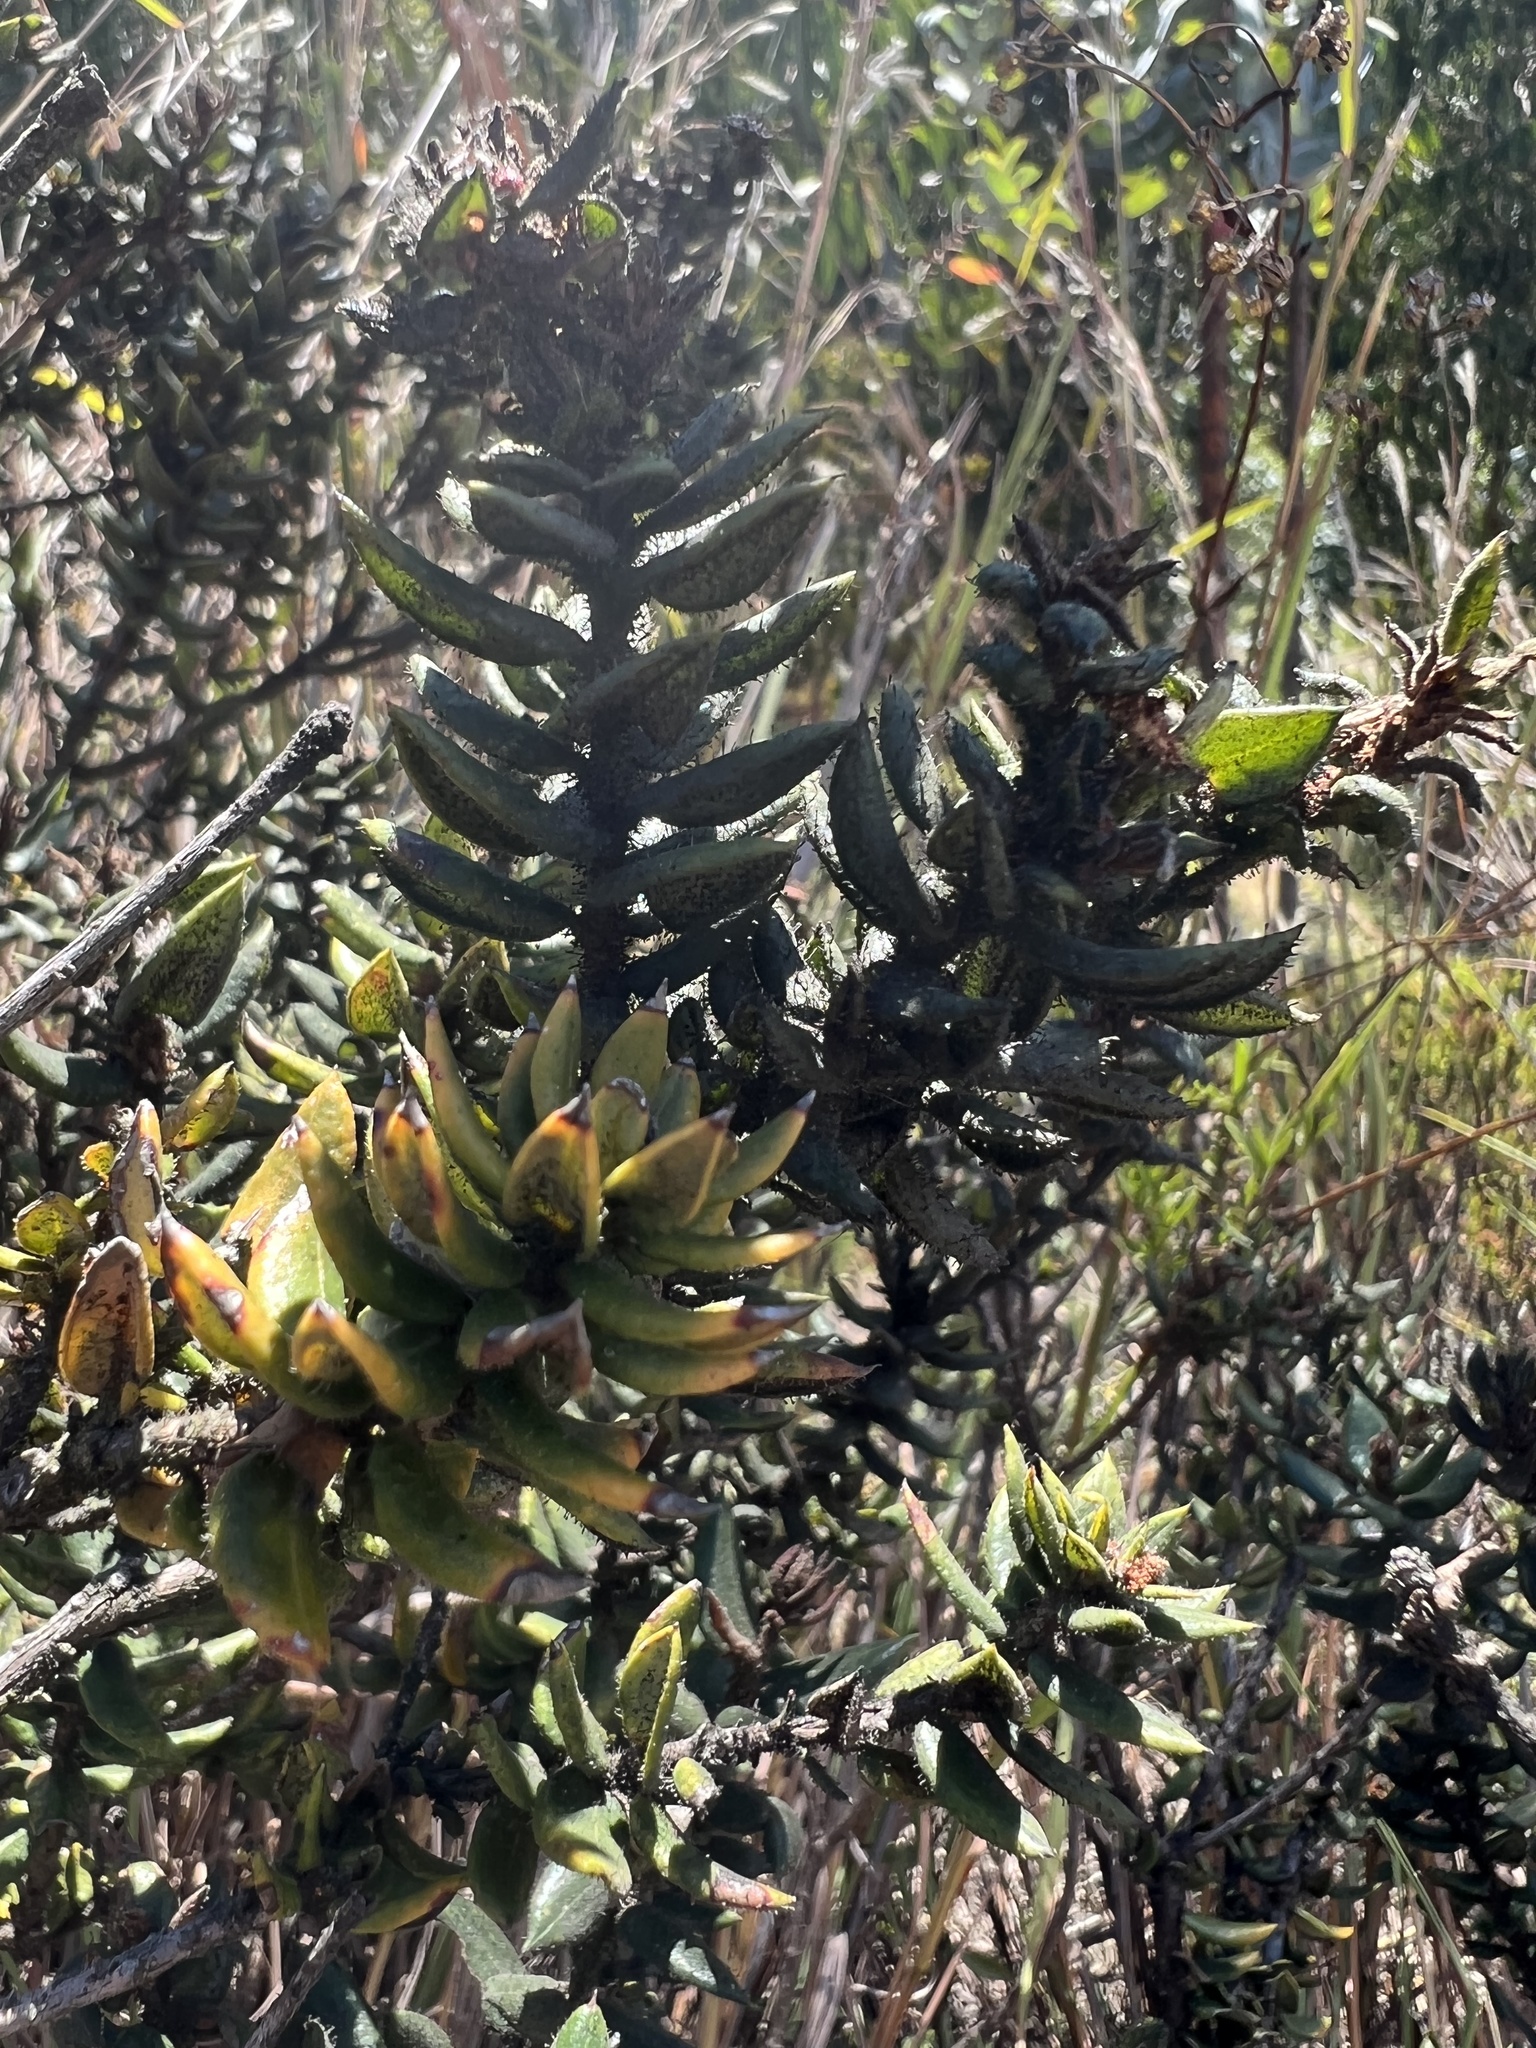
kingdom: Plantae
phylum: Tracheophyta
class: Magnoliopsida
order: Ericales
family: Ericaceae
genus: Bejaria
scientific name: Bejaria resinosa
